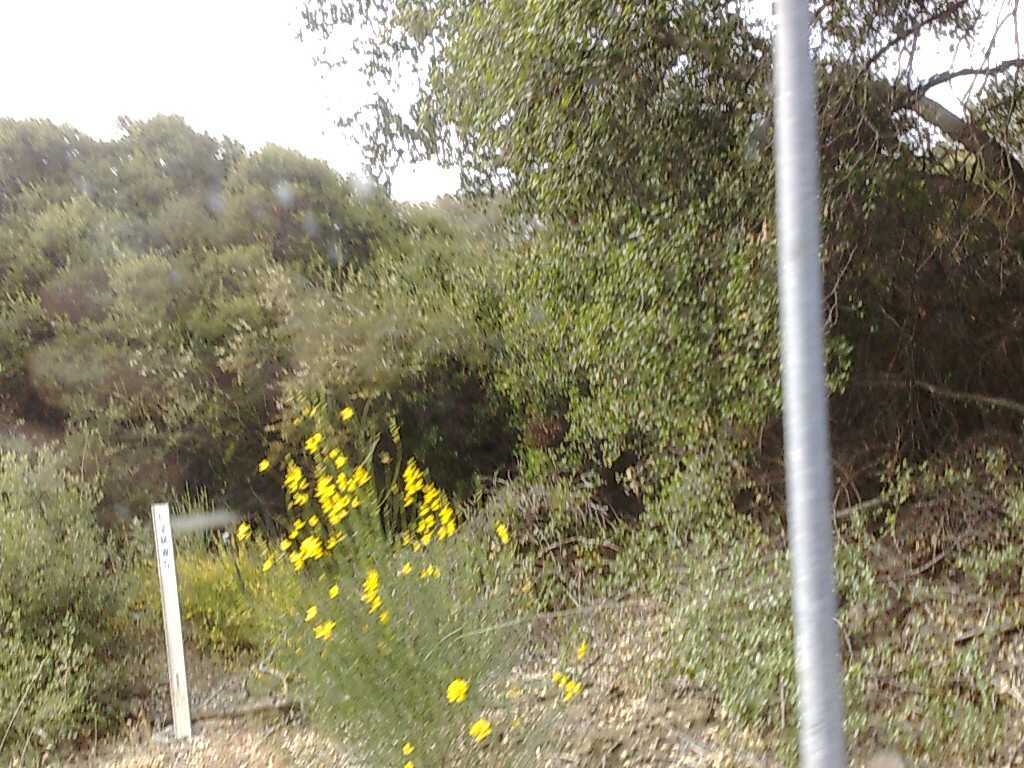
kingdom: Plantae
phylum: Tracheophyta
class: Magnoliopsida
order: Fagales
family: Fagaceae
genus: Quercus
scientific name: Quercus agrifolia
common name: California live oak
